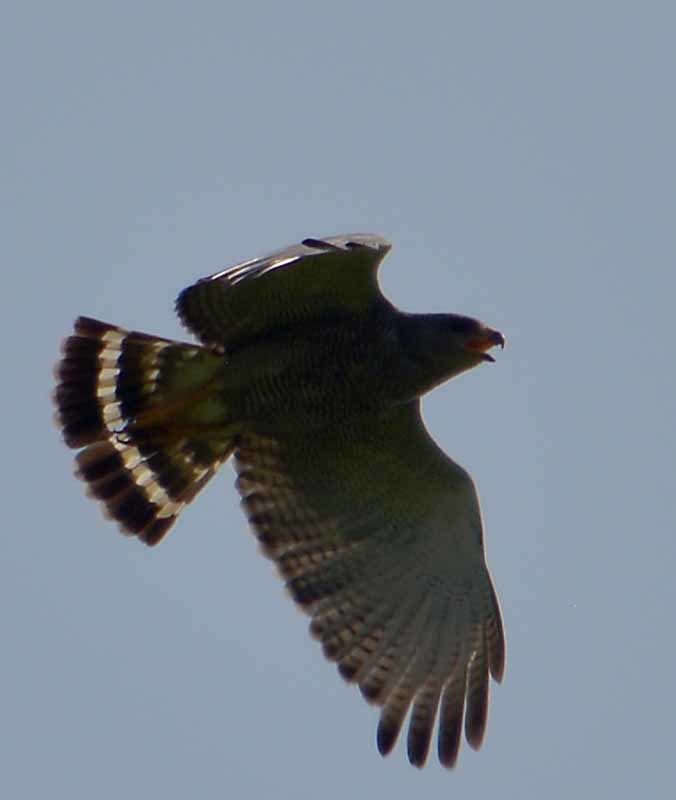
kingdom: Animalia
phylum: Chordata
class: Aves
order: Accipitriformes
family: Accipitridae
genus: Buteo
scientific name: Buteo nitidus
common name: Grey-lined hawk
